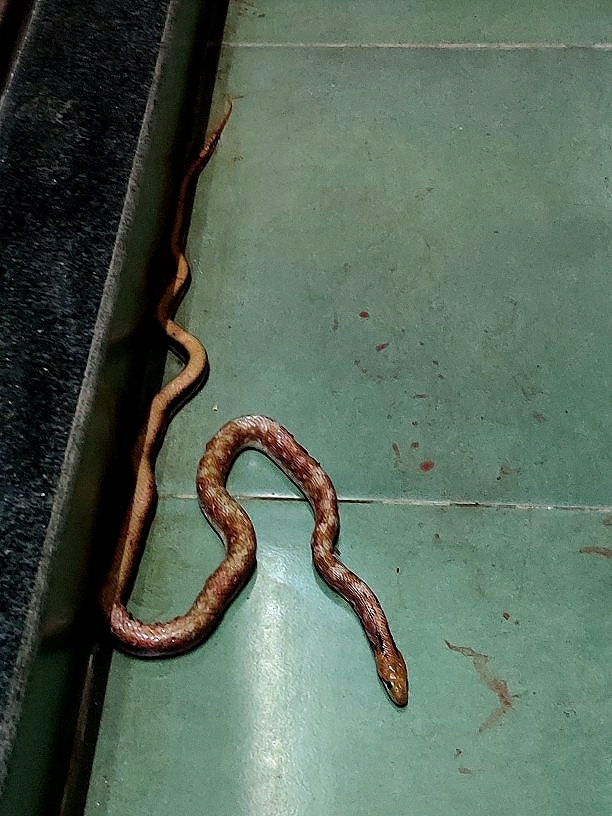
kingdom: Animalia
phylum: Chordata
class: Squamata
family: Colubridae
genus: Coelognathus
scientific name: Coelognathus helena
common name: Trinket snake
